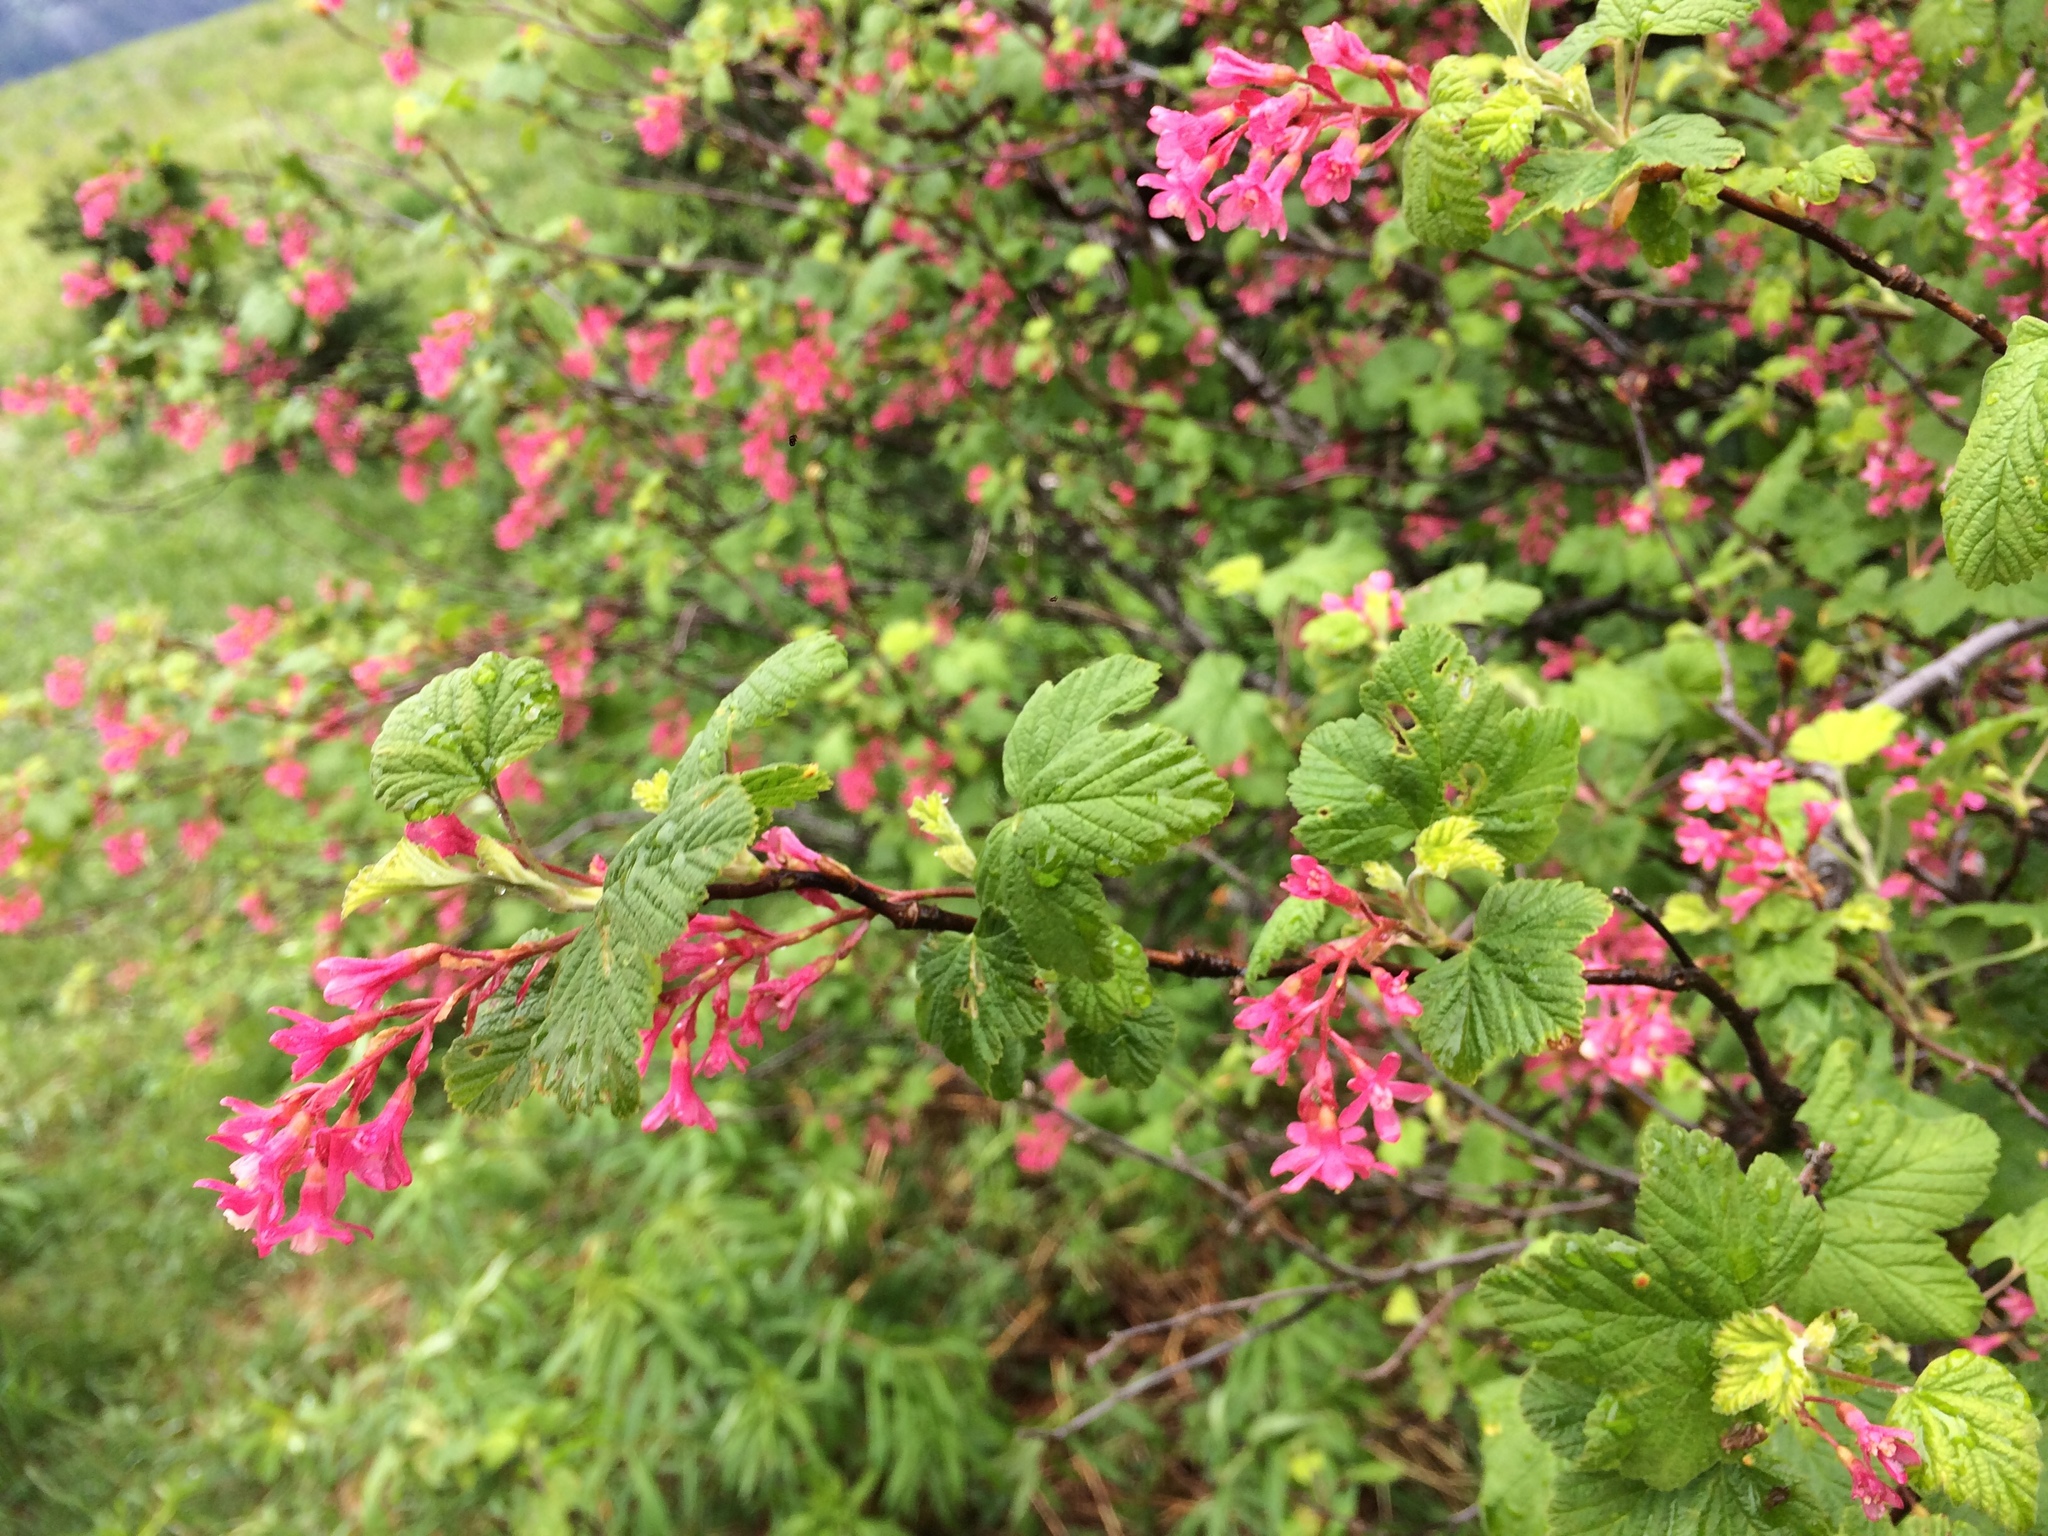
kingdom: Plantae
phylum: Tracheophyta
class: Magnoliopsida
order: Saxifragales
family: Grossulariaceae
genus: Ribes
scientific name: Ribes sanguineum
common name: Flowering currant
